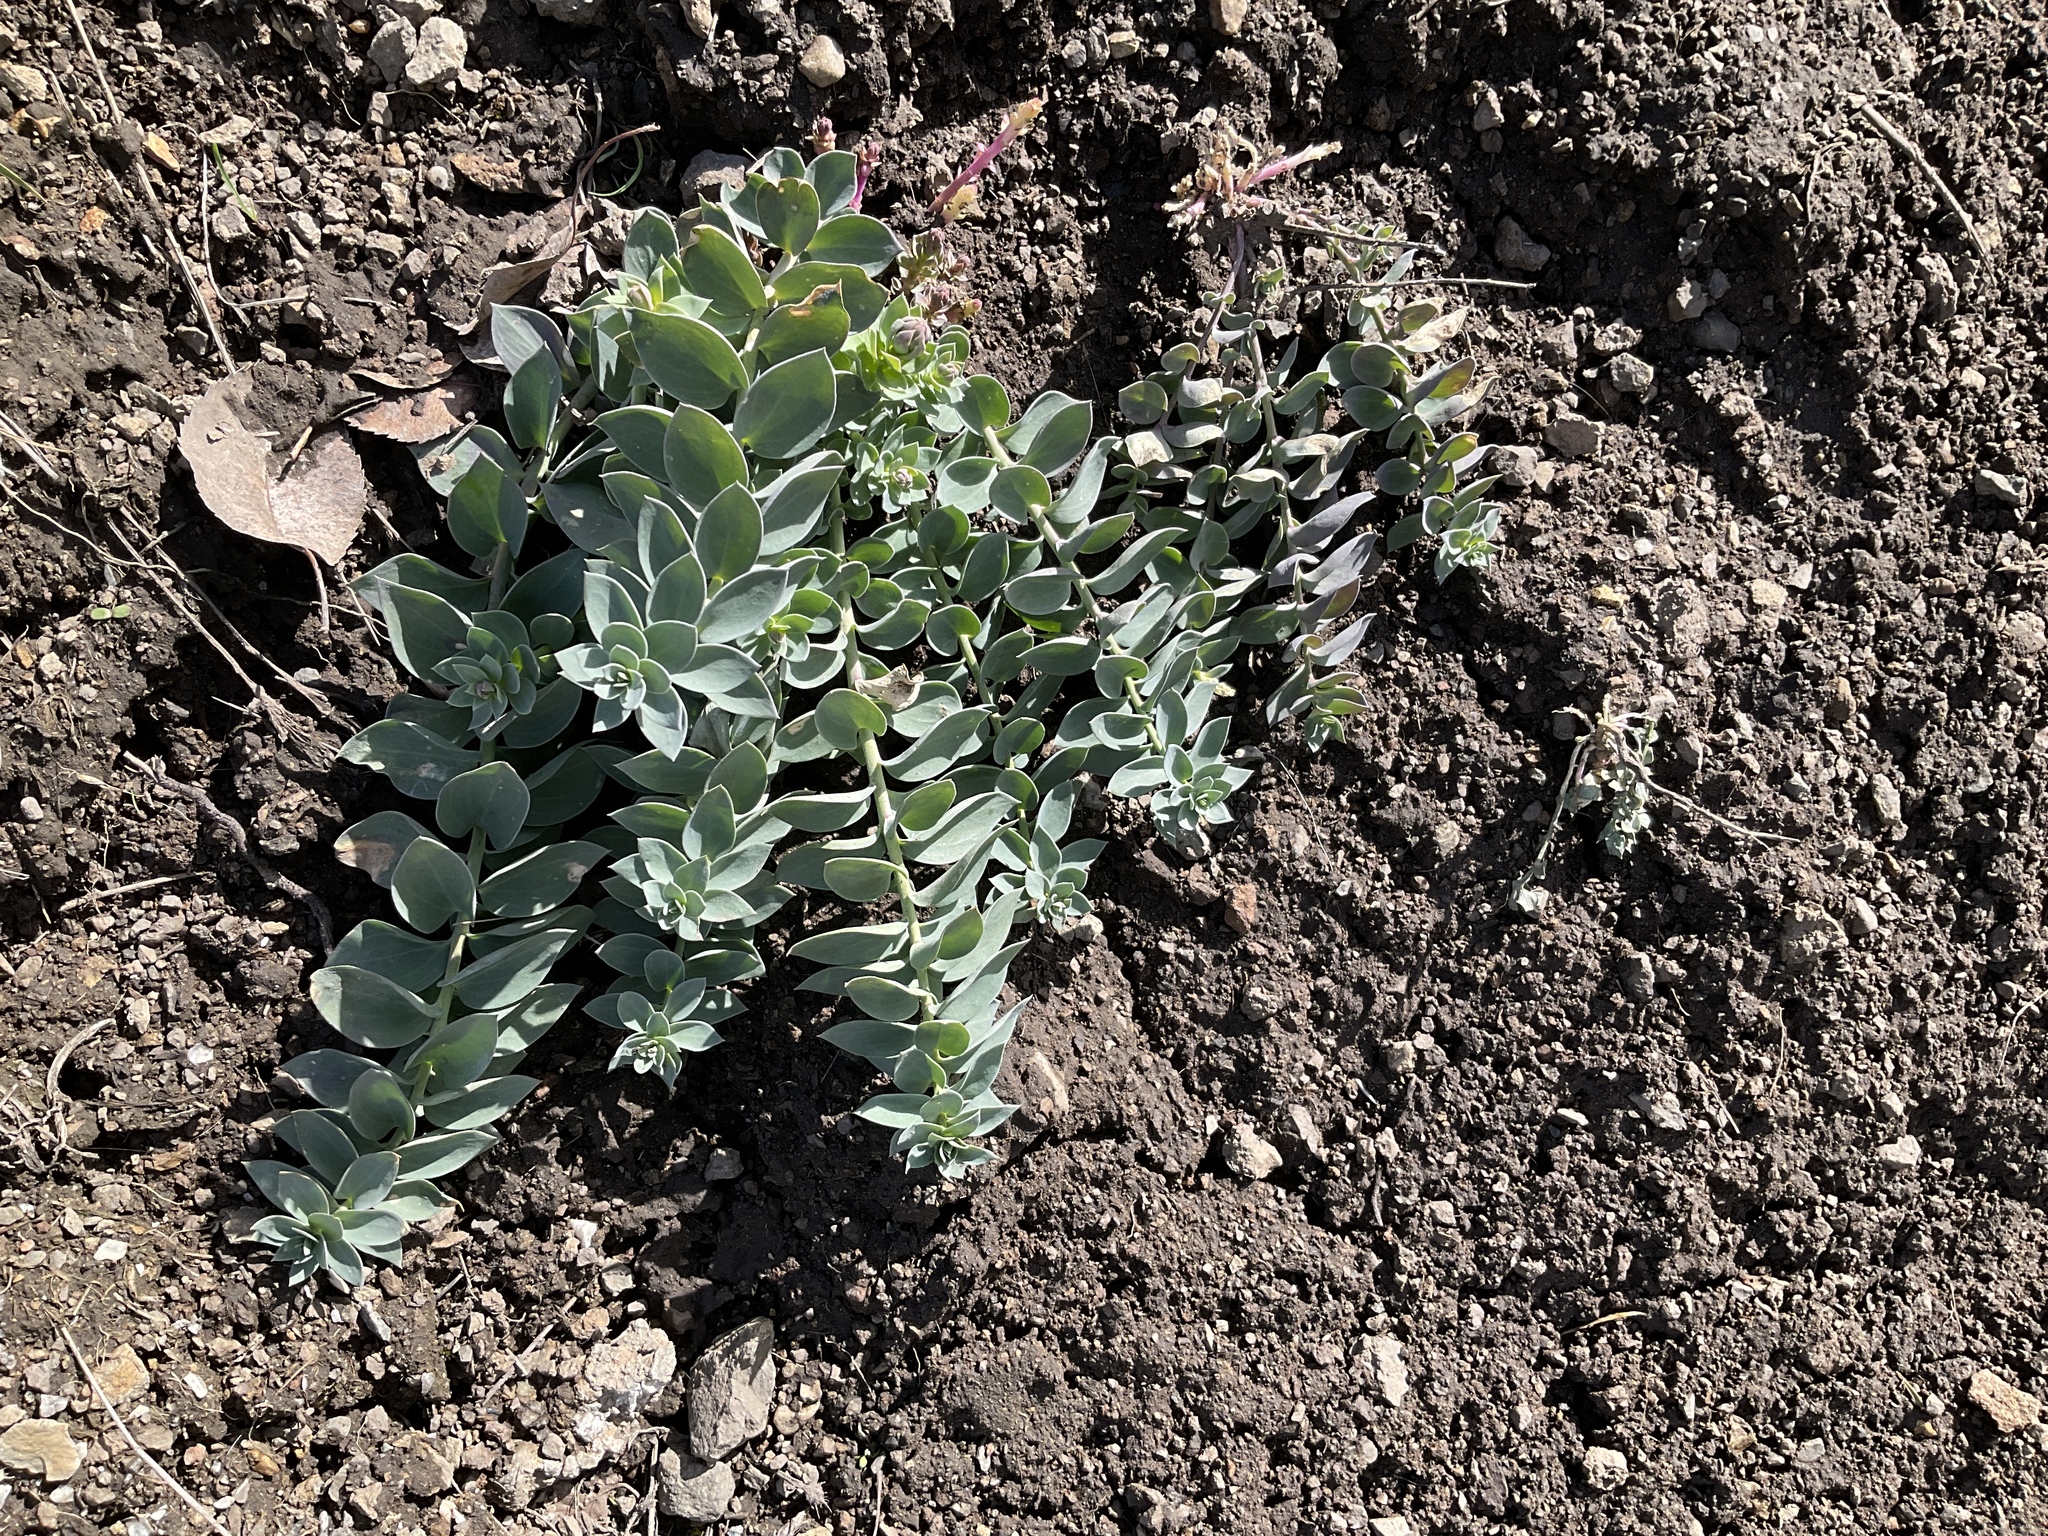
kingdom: Plantae
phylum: Tracheophyta
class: Magnoliopsida
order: Lamiales
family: Plantaginaceae
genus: Linaria
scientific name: Linaria dalmatica
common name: Dalmatian toadflax
